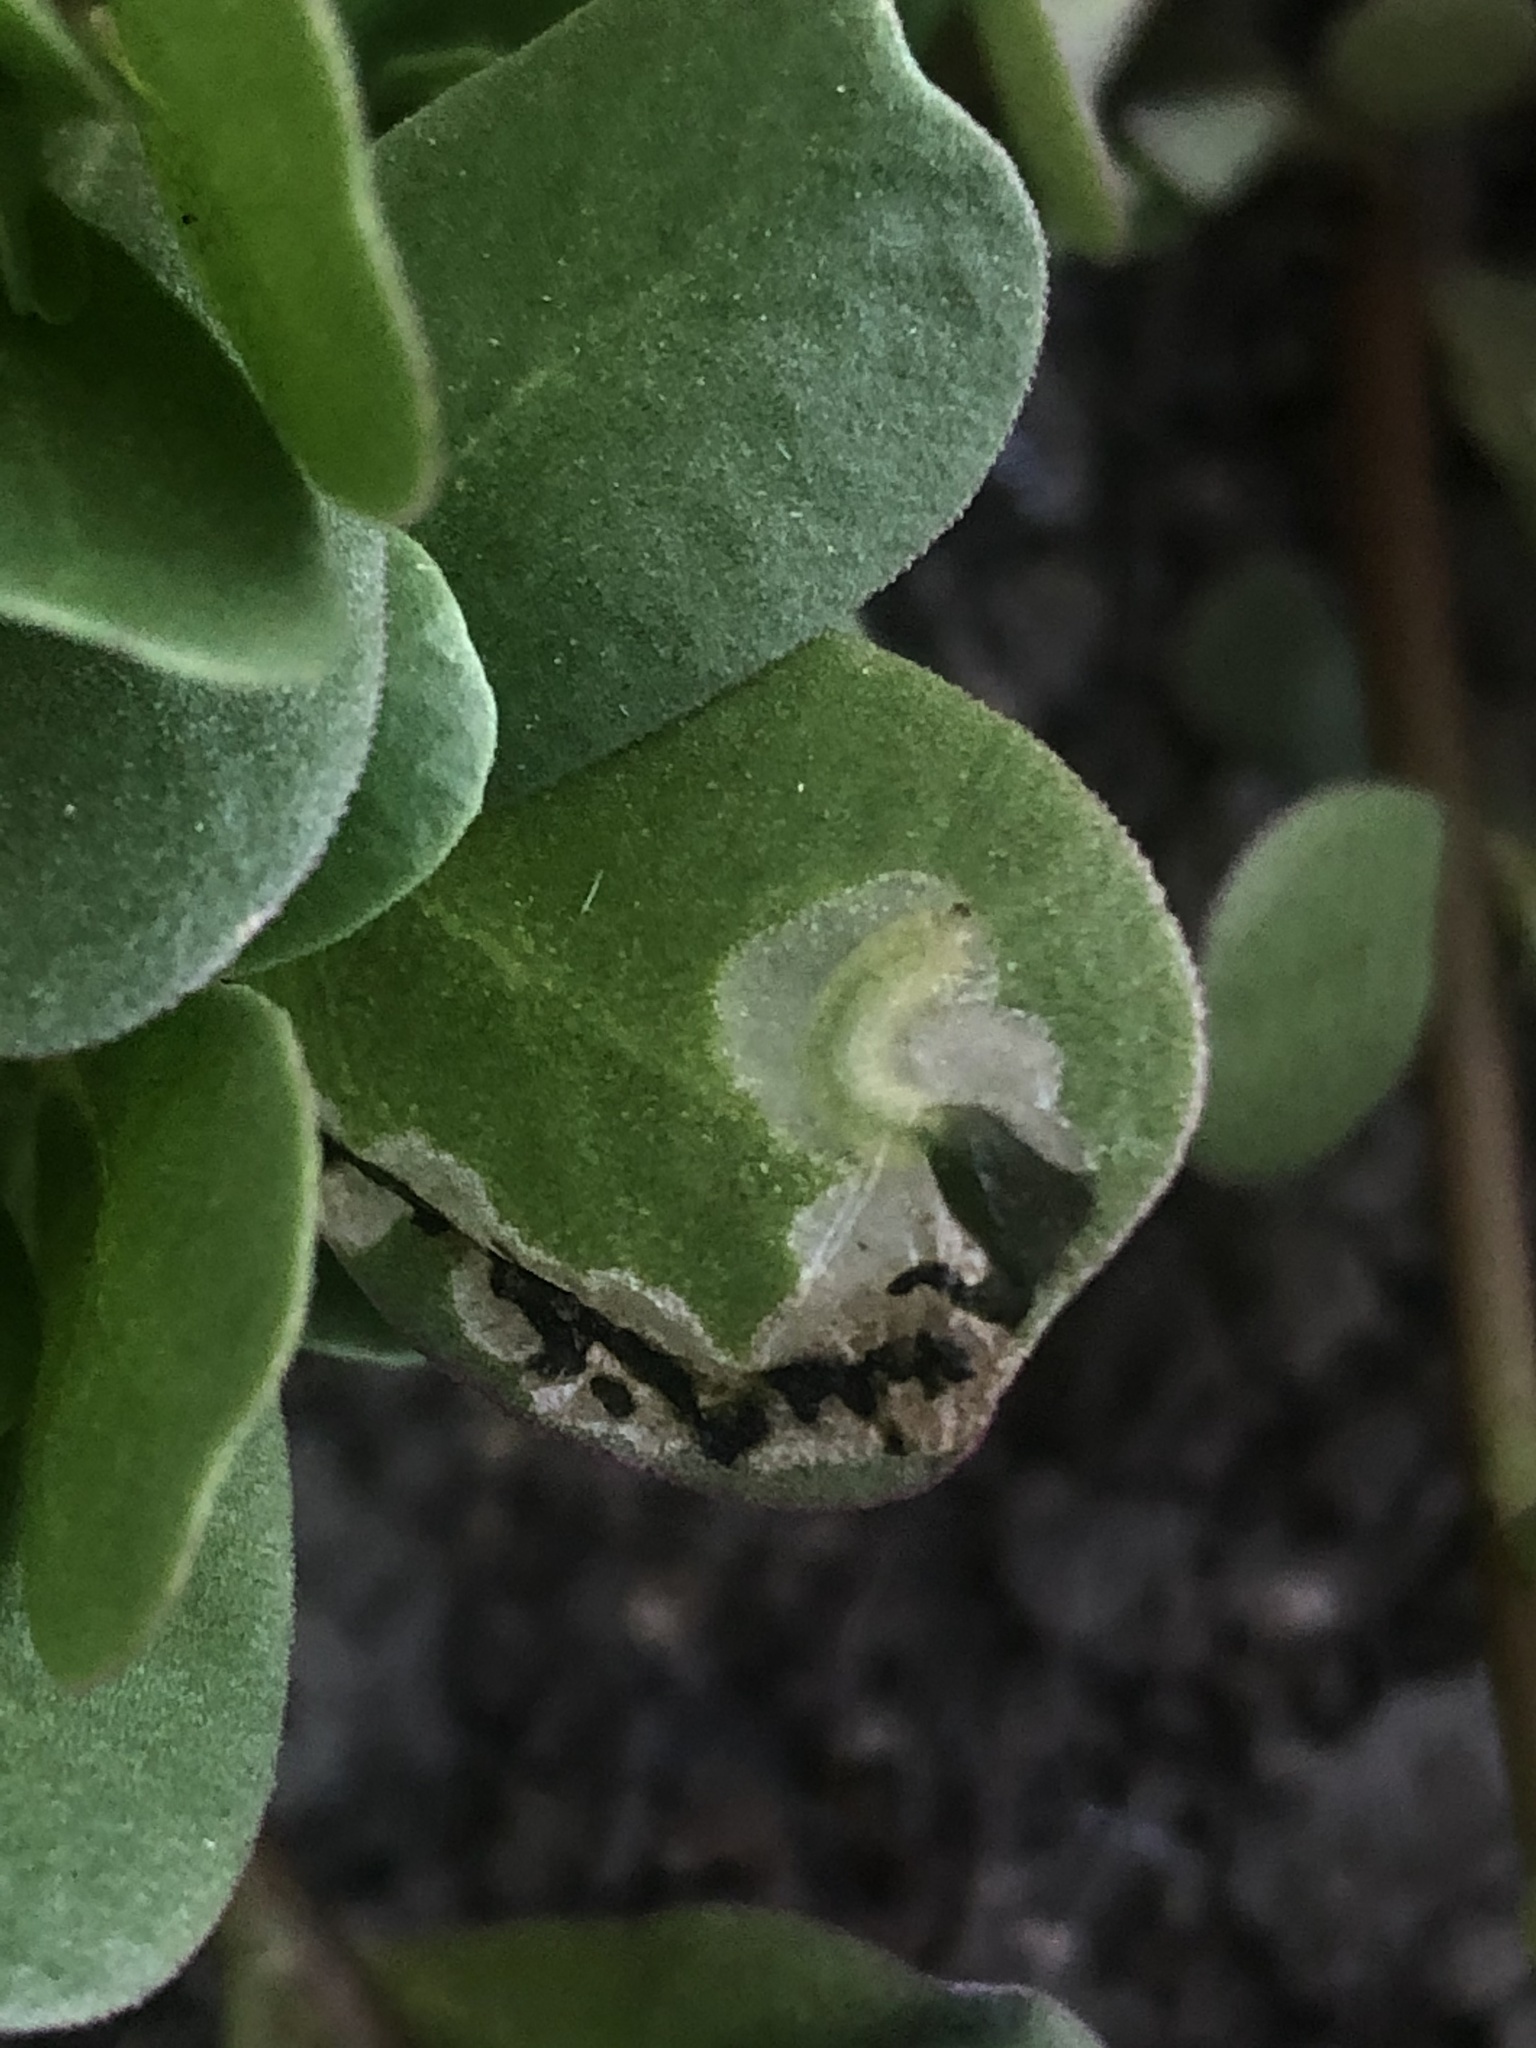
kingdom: Animalia
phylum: Arthropoda
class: Insecta
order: Hymenoptera
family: Argidae
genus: Schizocerella
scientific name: Schizocerella pilicornis
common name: Purslane sawfly
